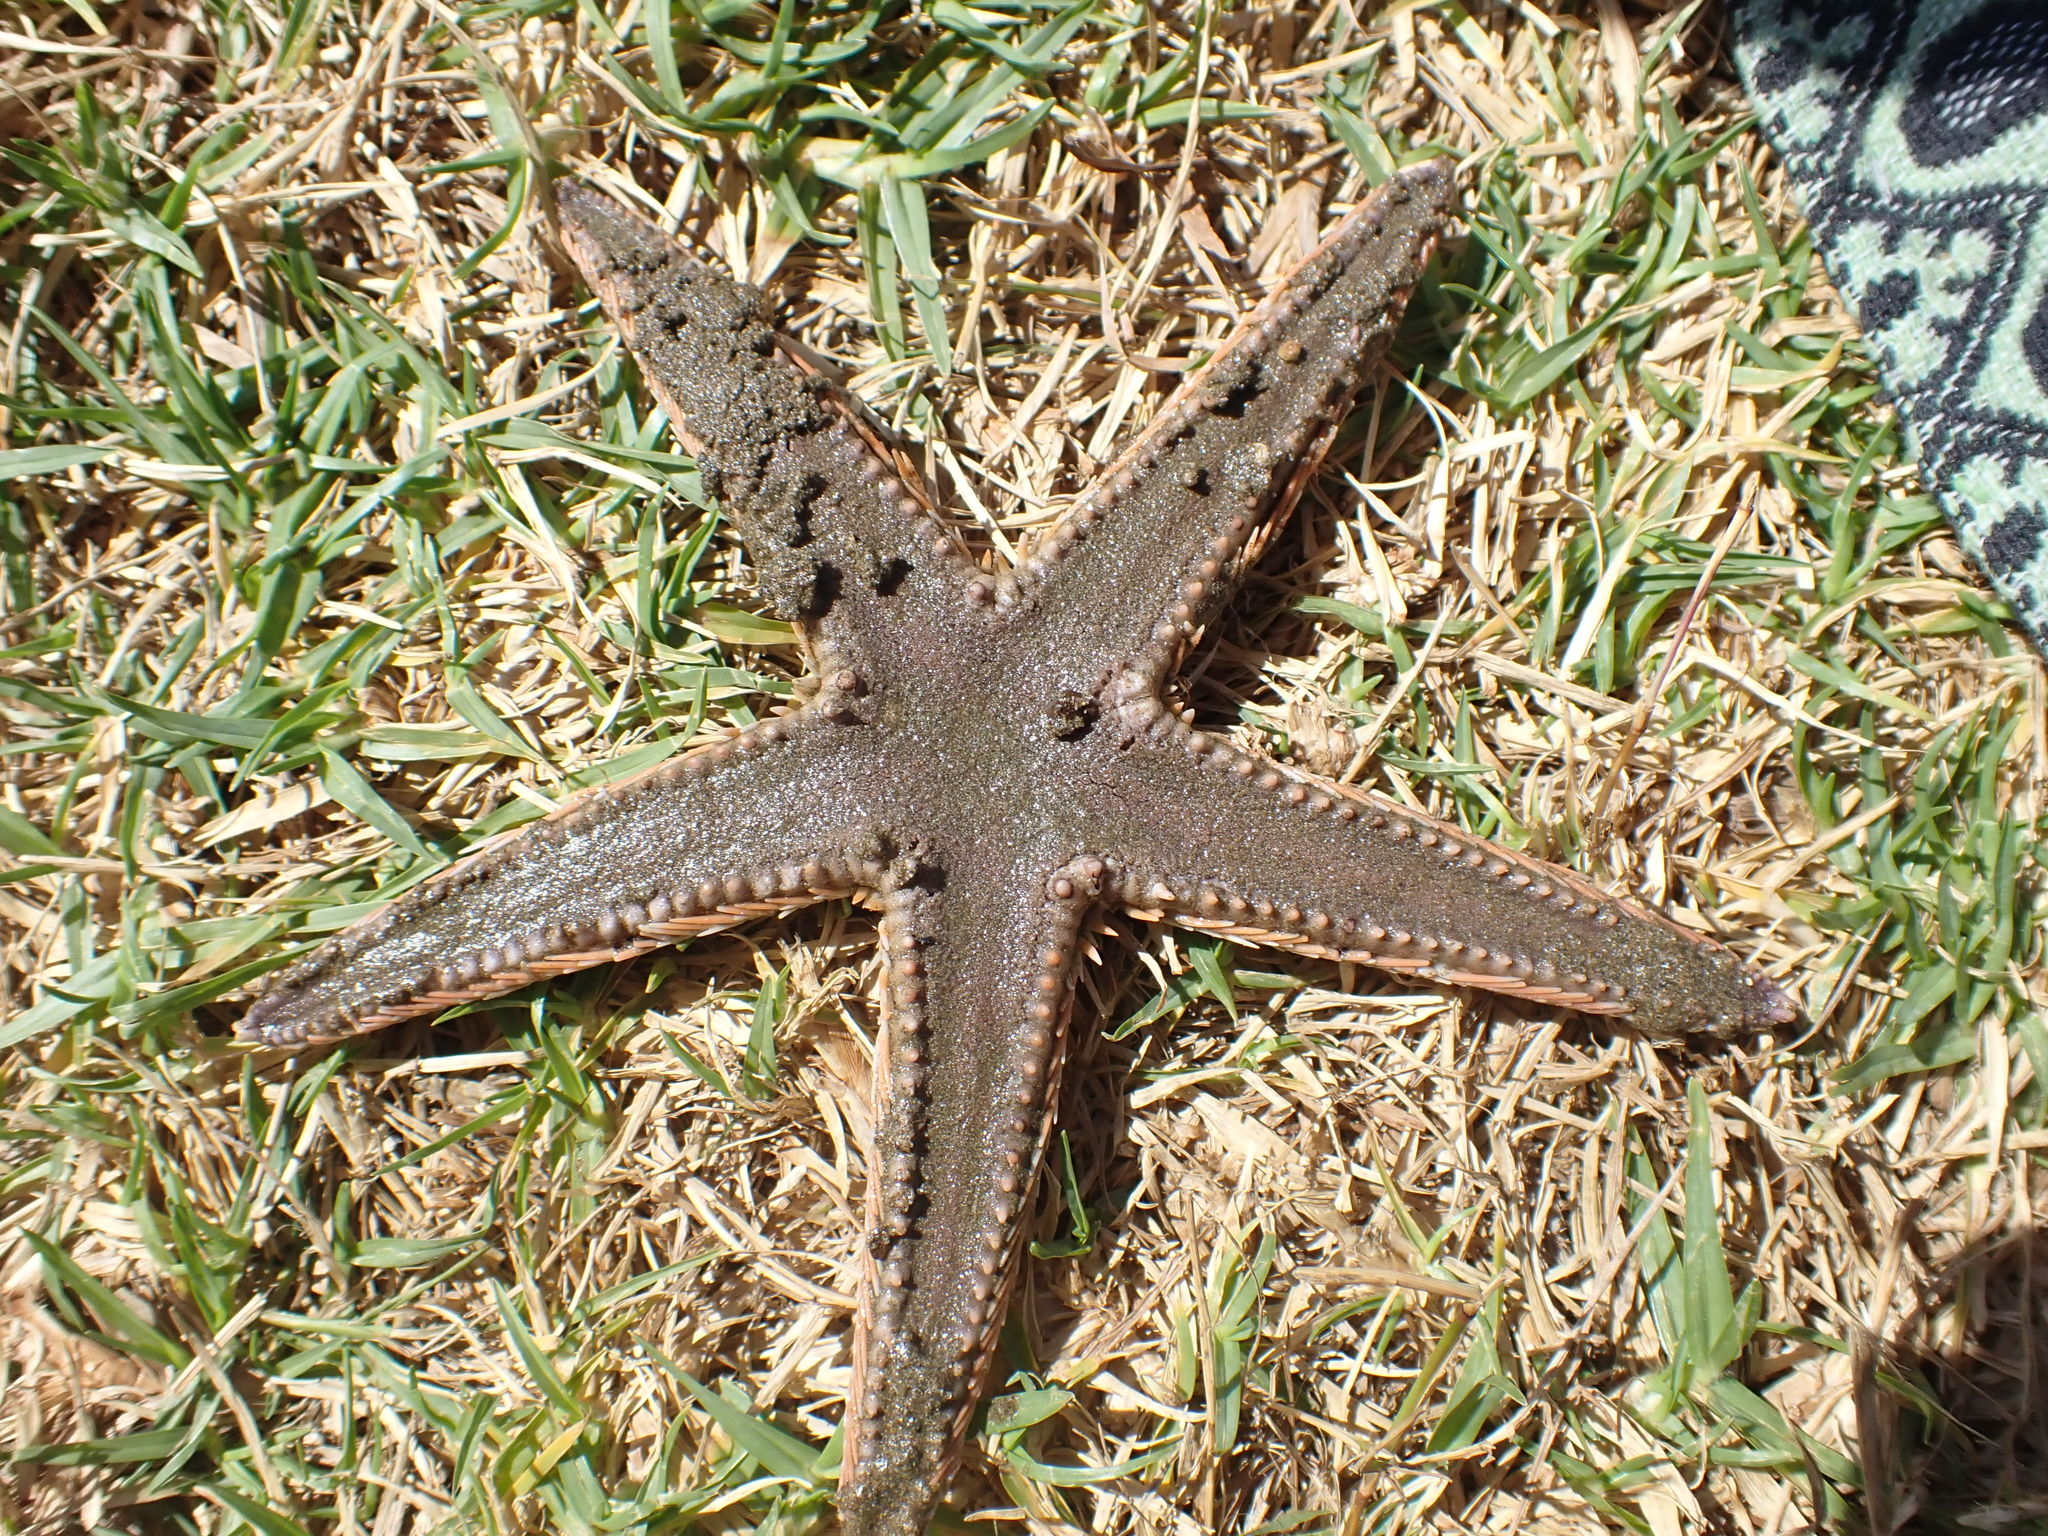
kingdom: Animalia
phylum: Echinodermata
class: Asteroidea
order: Paxillosida
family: Astropectinidae
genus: Astropecten
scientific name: Astropecten polyacanthus
